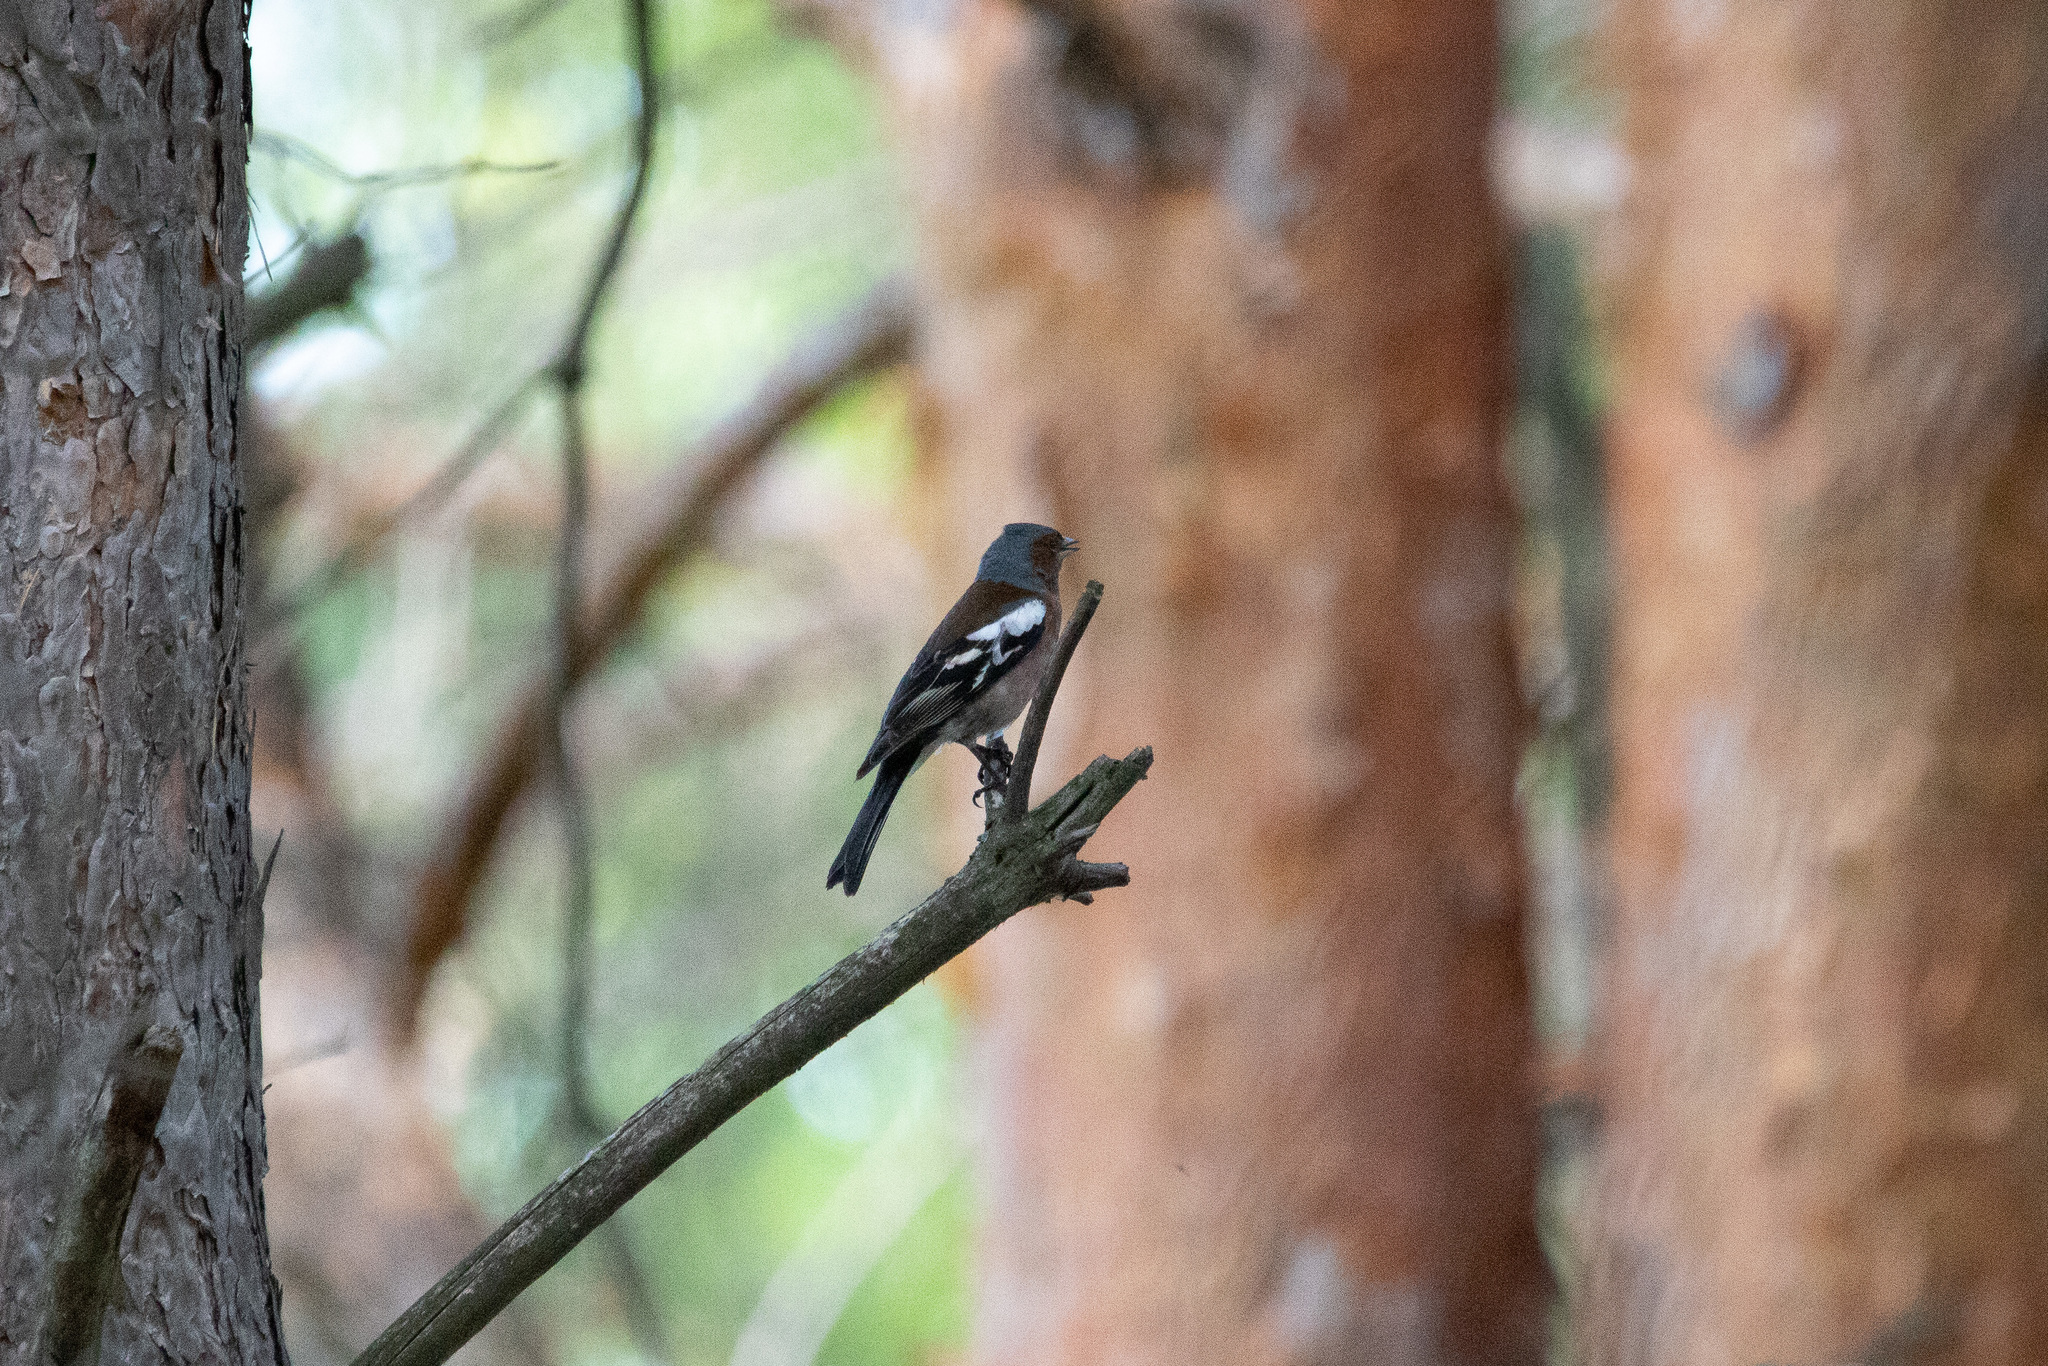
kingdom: Animalia
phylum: Chordata
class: Aves
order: Passeriformes
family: Fringillidae
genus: Fringilla
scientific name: Fringilla coelebs
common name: Common chaffinch
